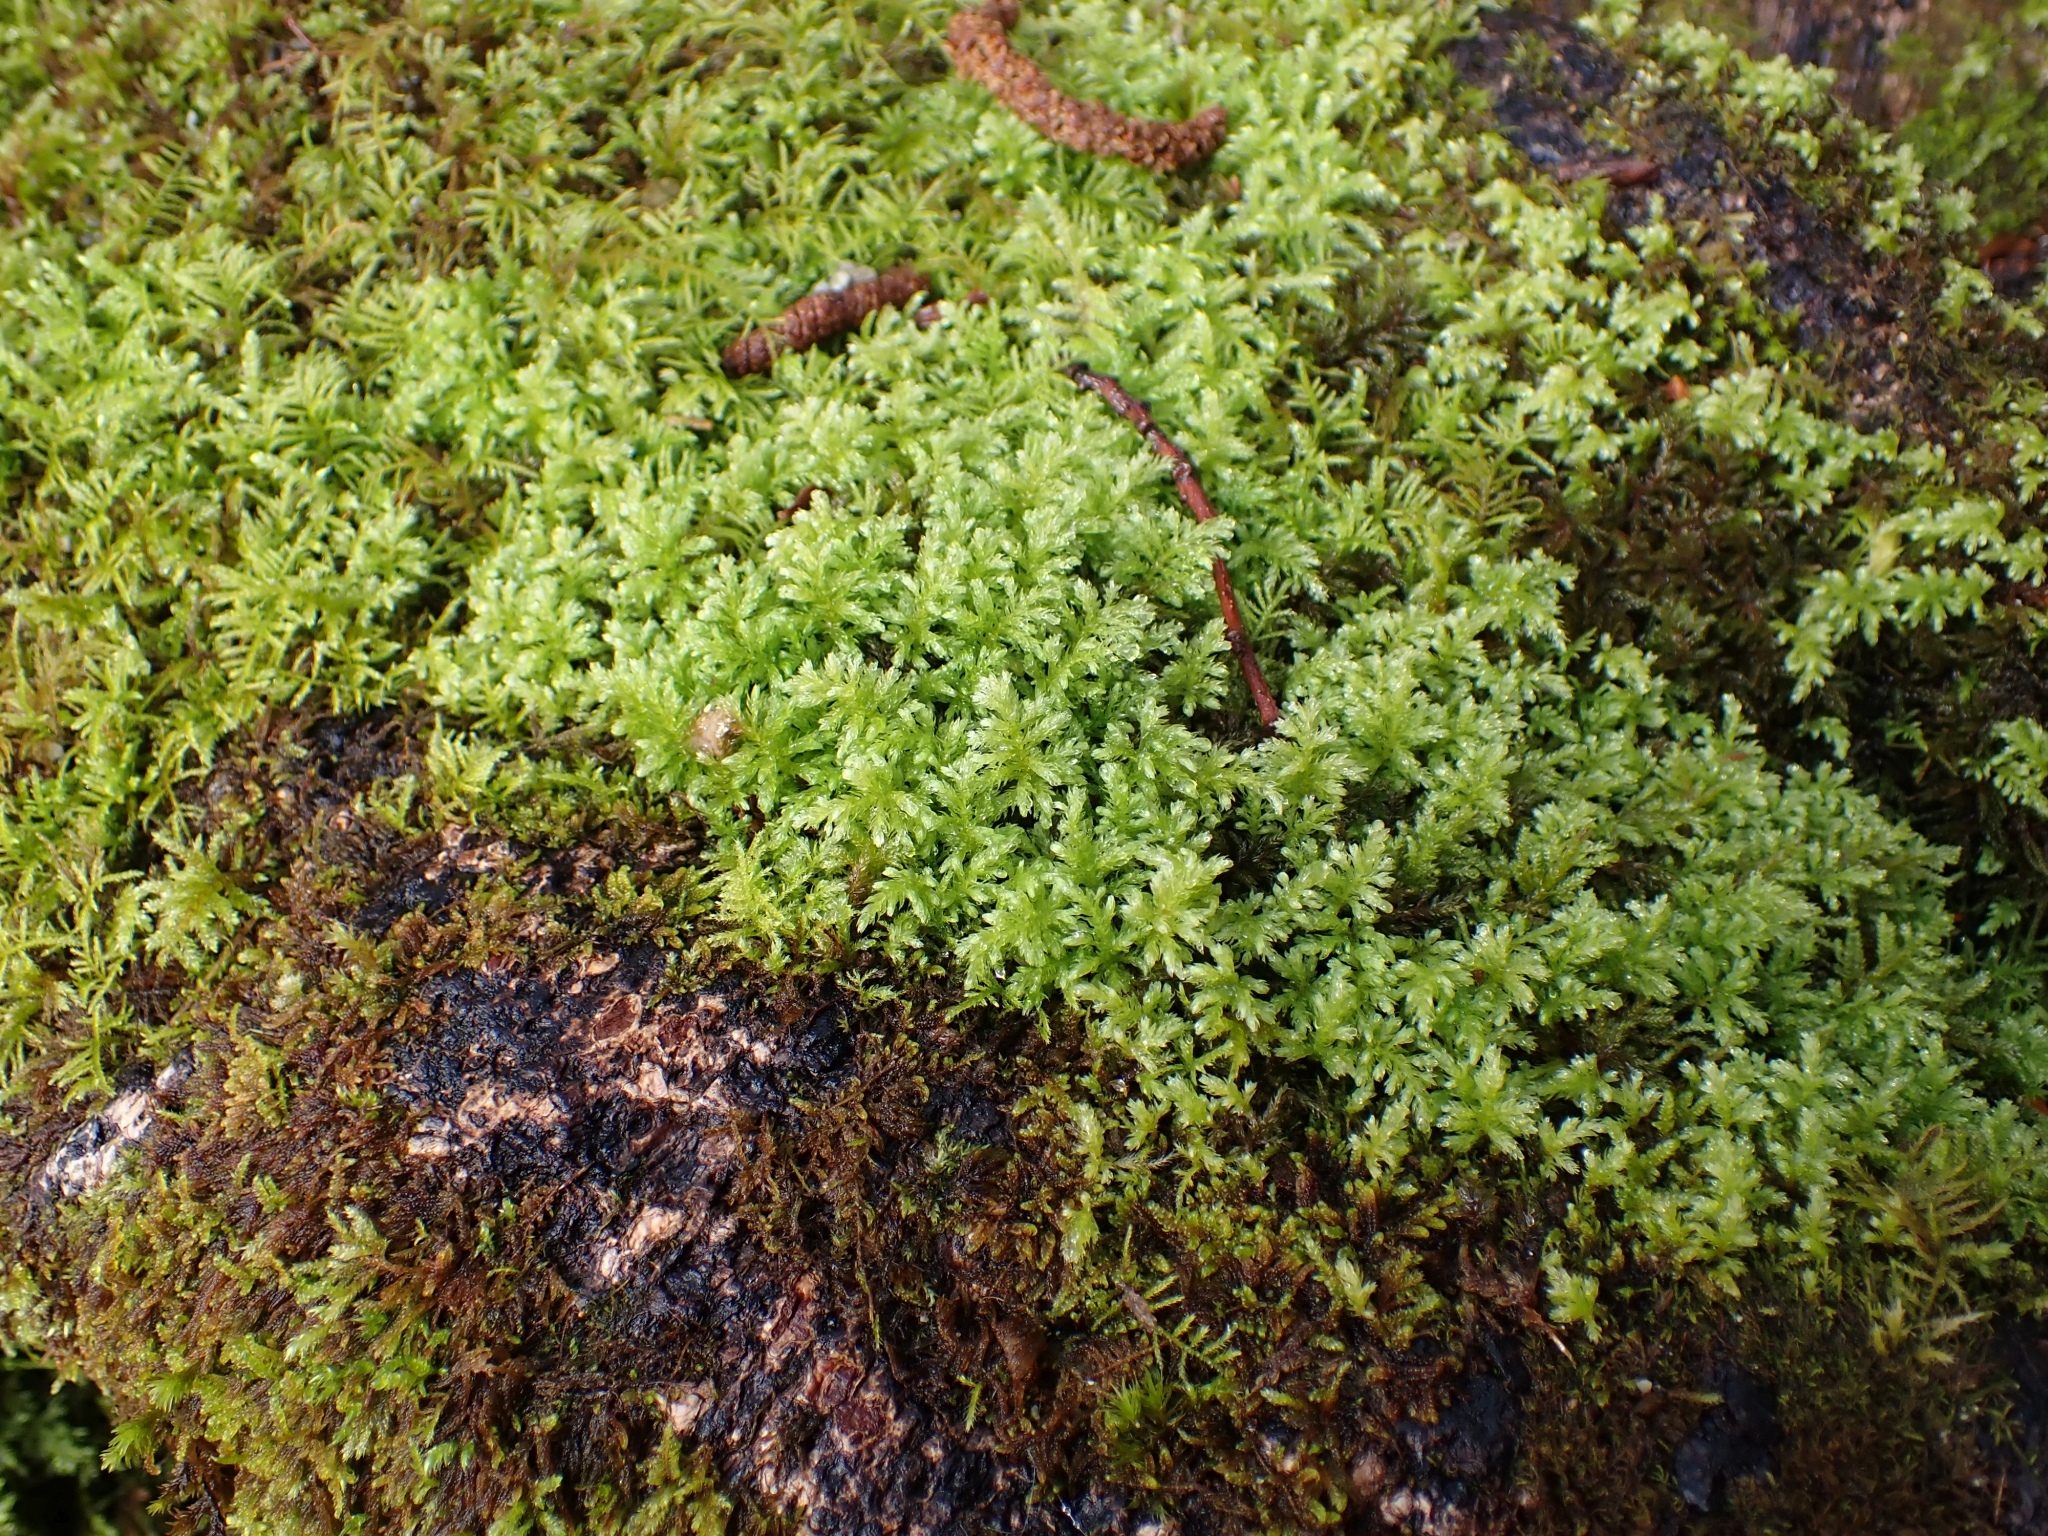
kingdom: Plantae
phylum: Bryophyta
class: Bryopsida
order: Bryales
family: Mniaceae
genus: Leucolepis
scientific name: Leucolepis acanthoneura
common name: Leucolepis umbrella moss
